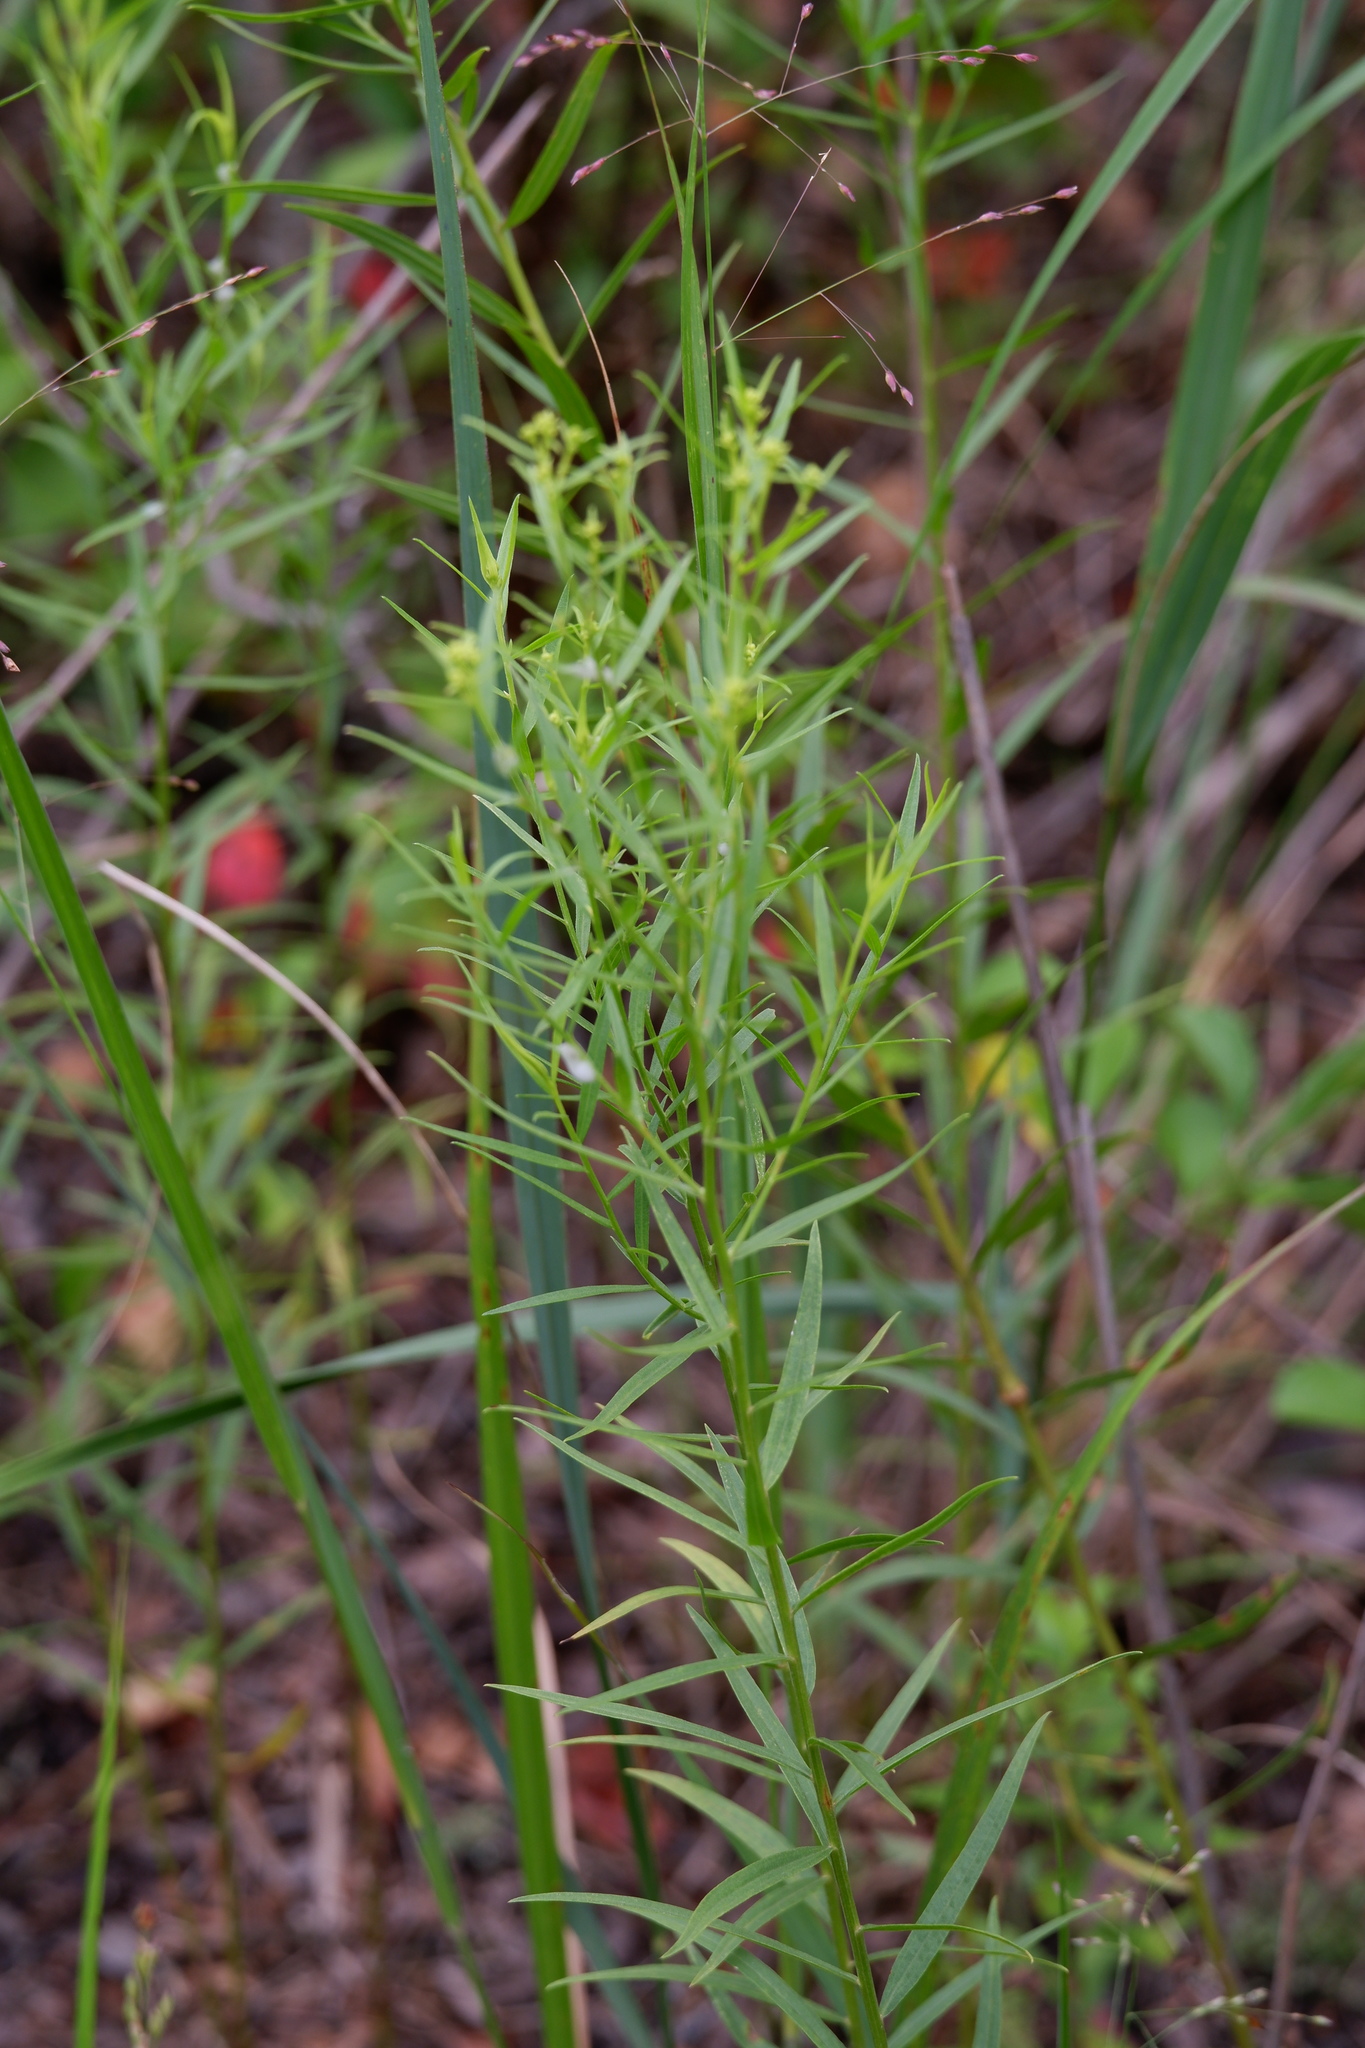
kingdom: Plantae
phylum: Tracheophyta
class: Magnoliopsida
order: Asterales
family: Asteraceae
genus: Euthamia
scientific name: Euthamia graminifolia
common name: Common goldentop
